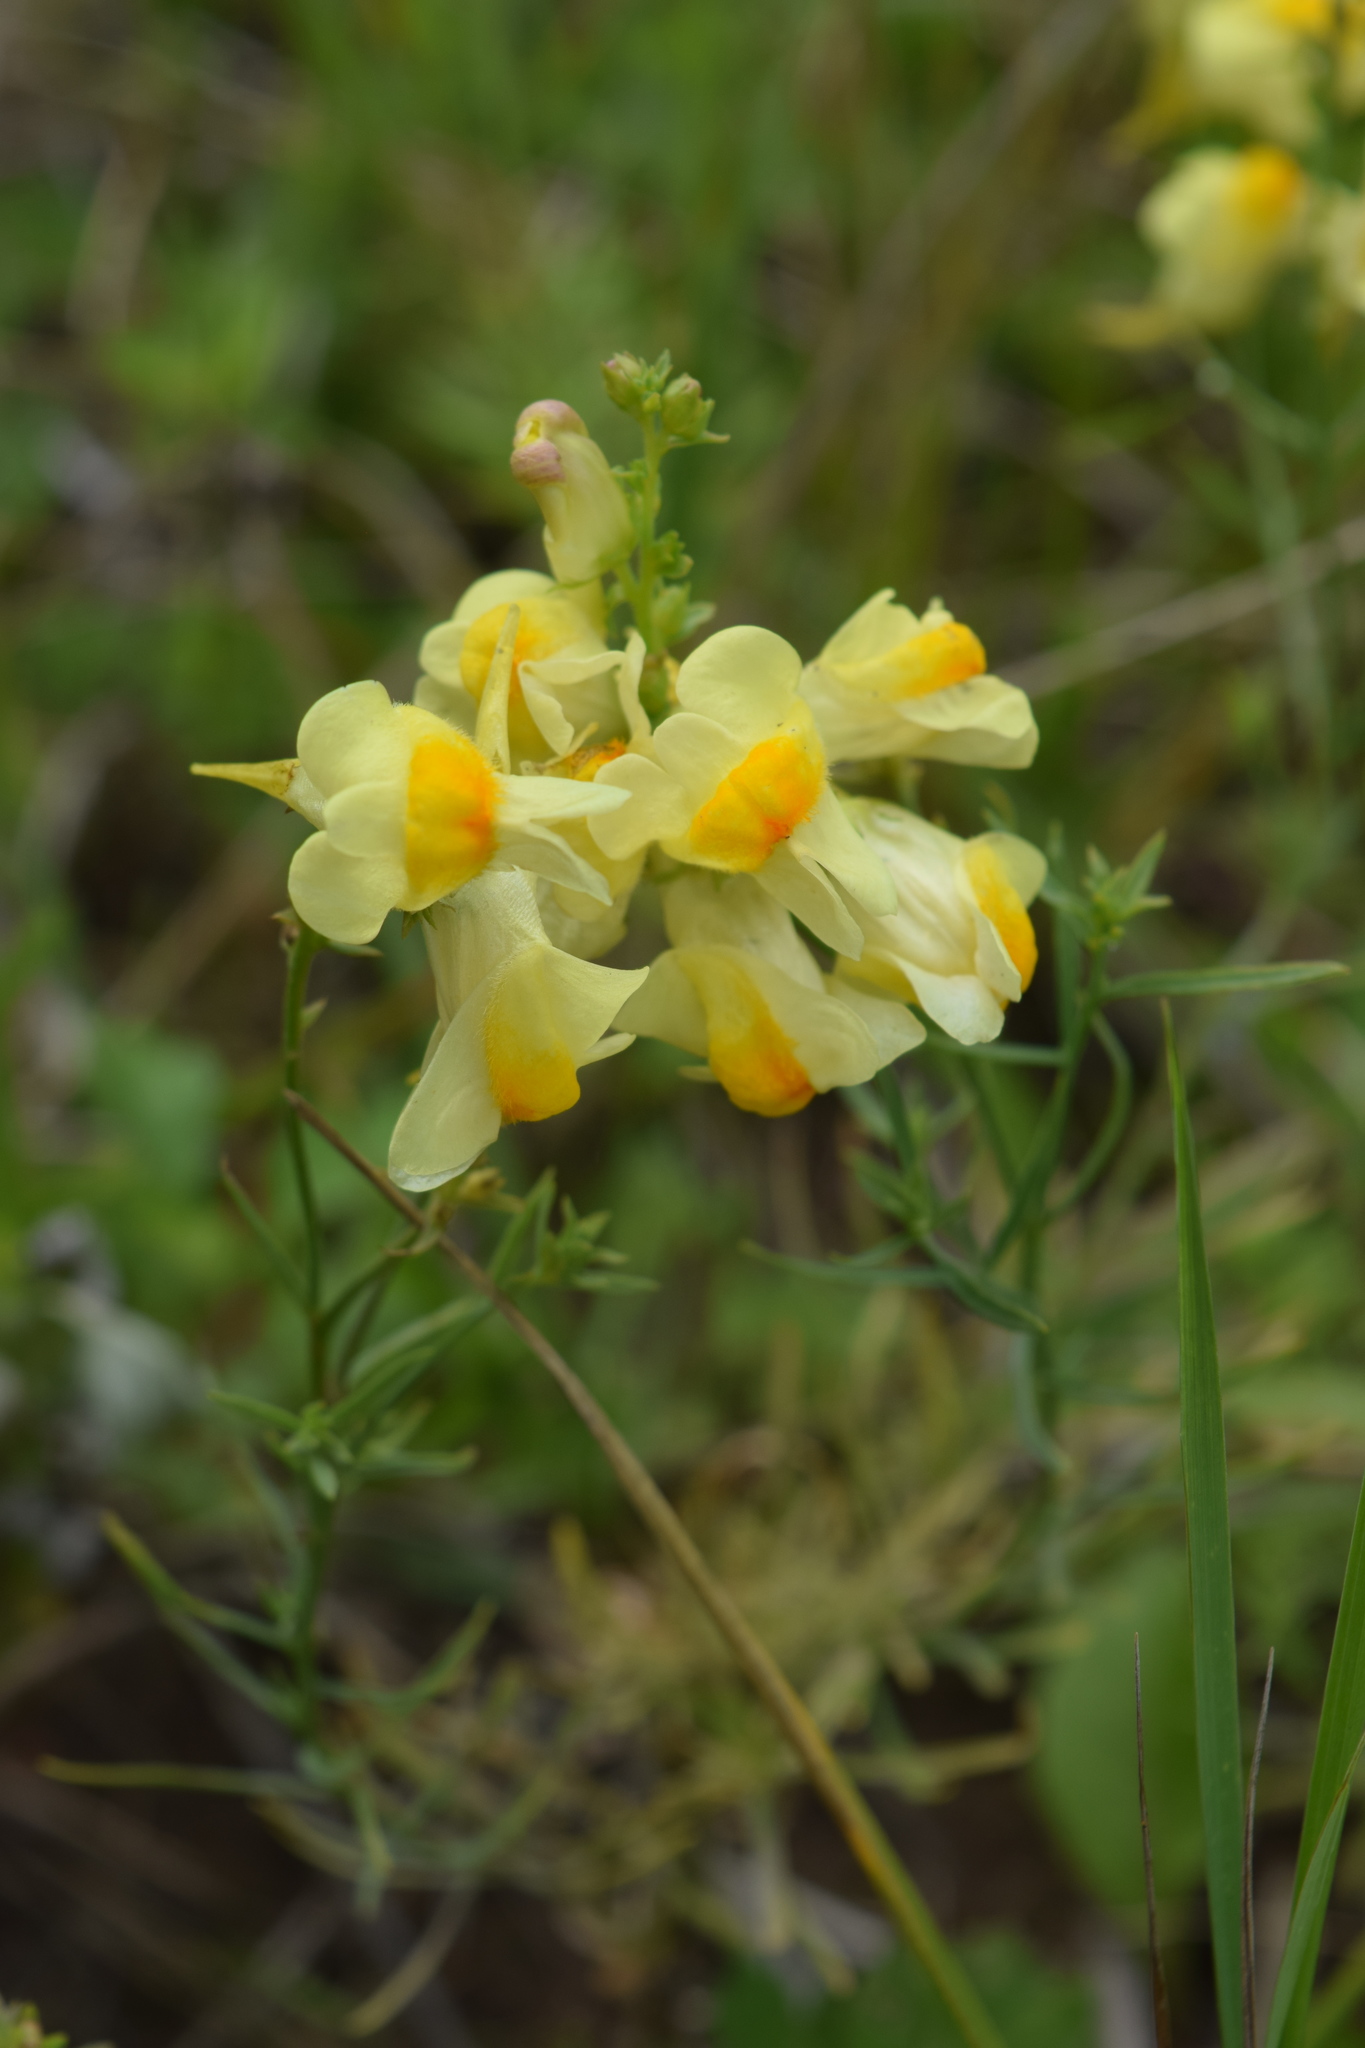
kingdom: Plantae
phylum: Tracheophyta
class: Magnoliopsida
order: Lamiales
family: Plantaginaceae
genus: Linaria
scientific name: Linaria vulgaris
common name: Butter and eggs
